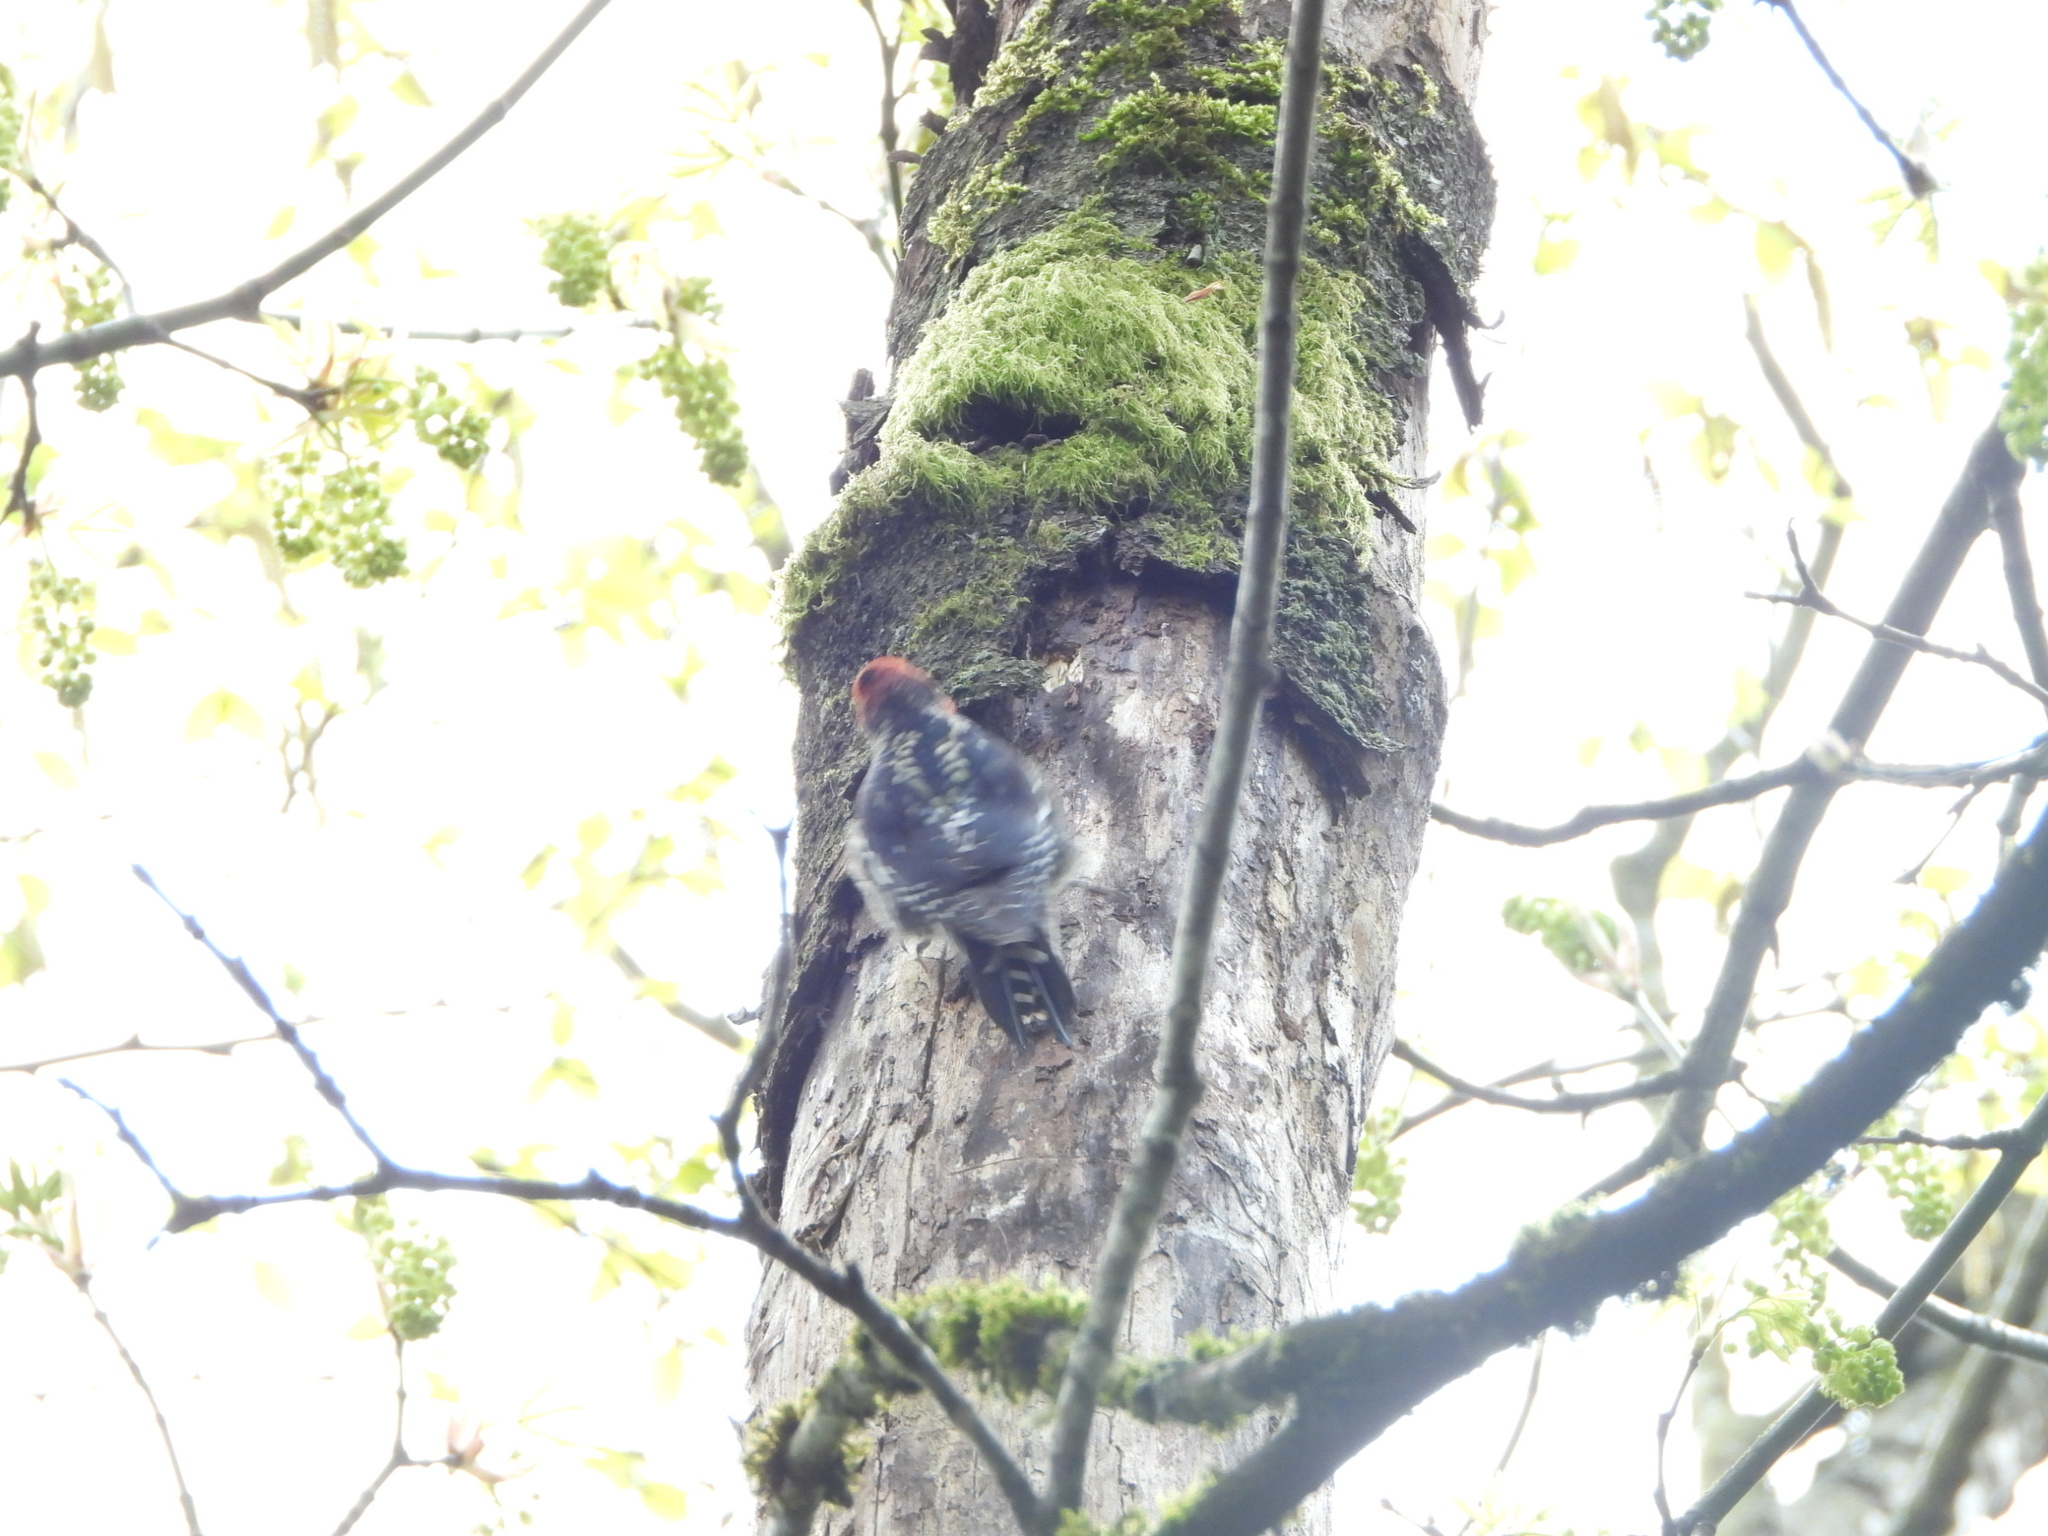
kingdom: Animalia
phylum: Chordata
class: Aves
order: Piciformes
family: Picidae
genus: Sphyrapicus
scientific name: Sphyrapicus ruber
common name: Red-breasted sapsucker
